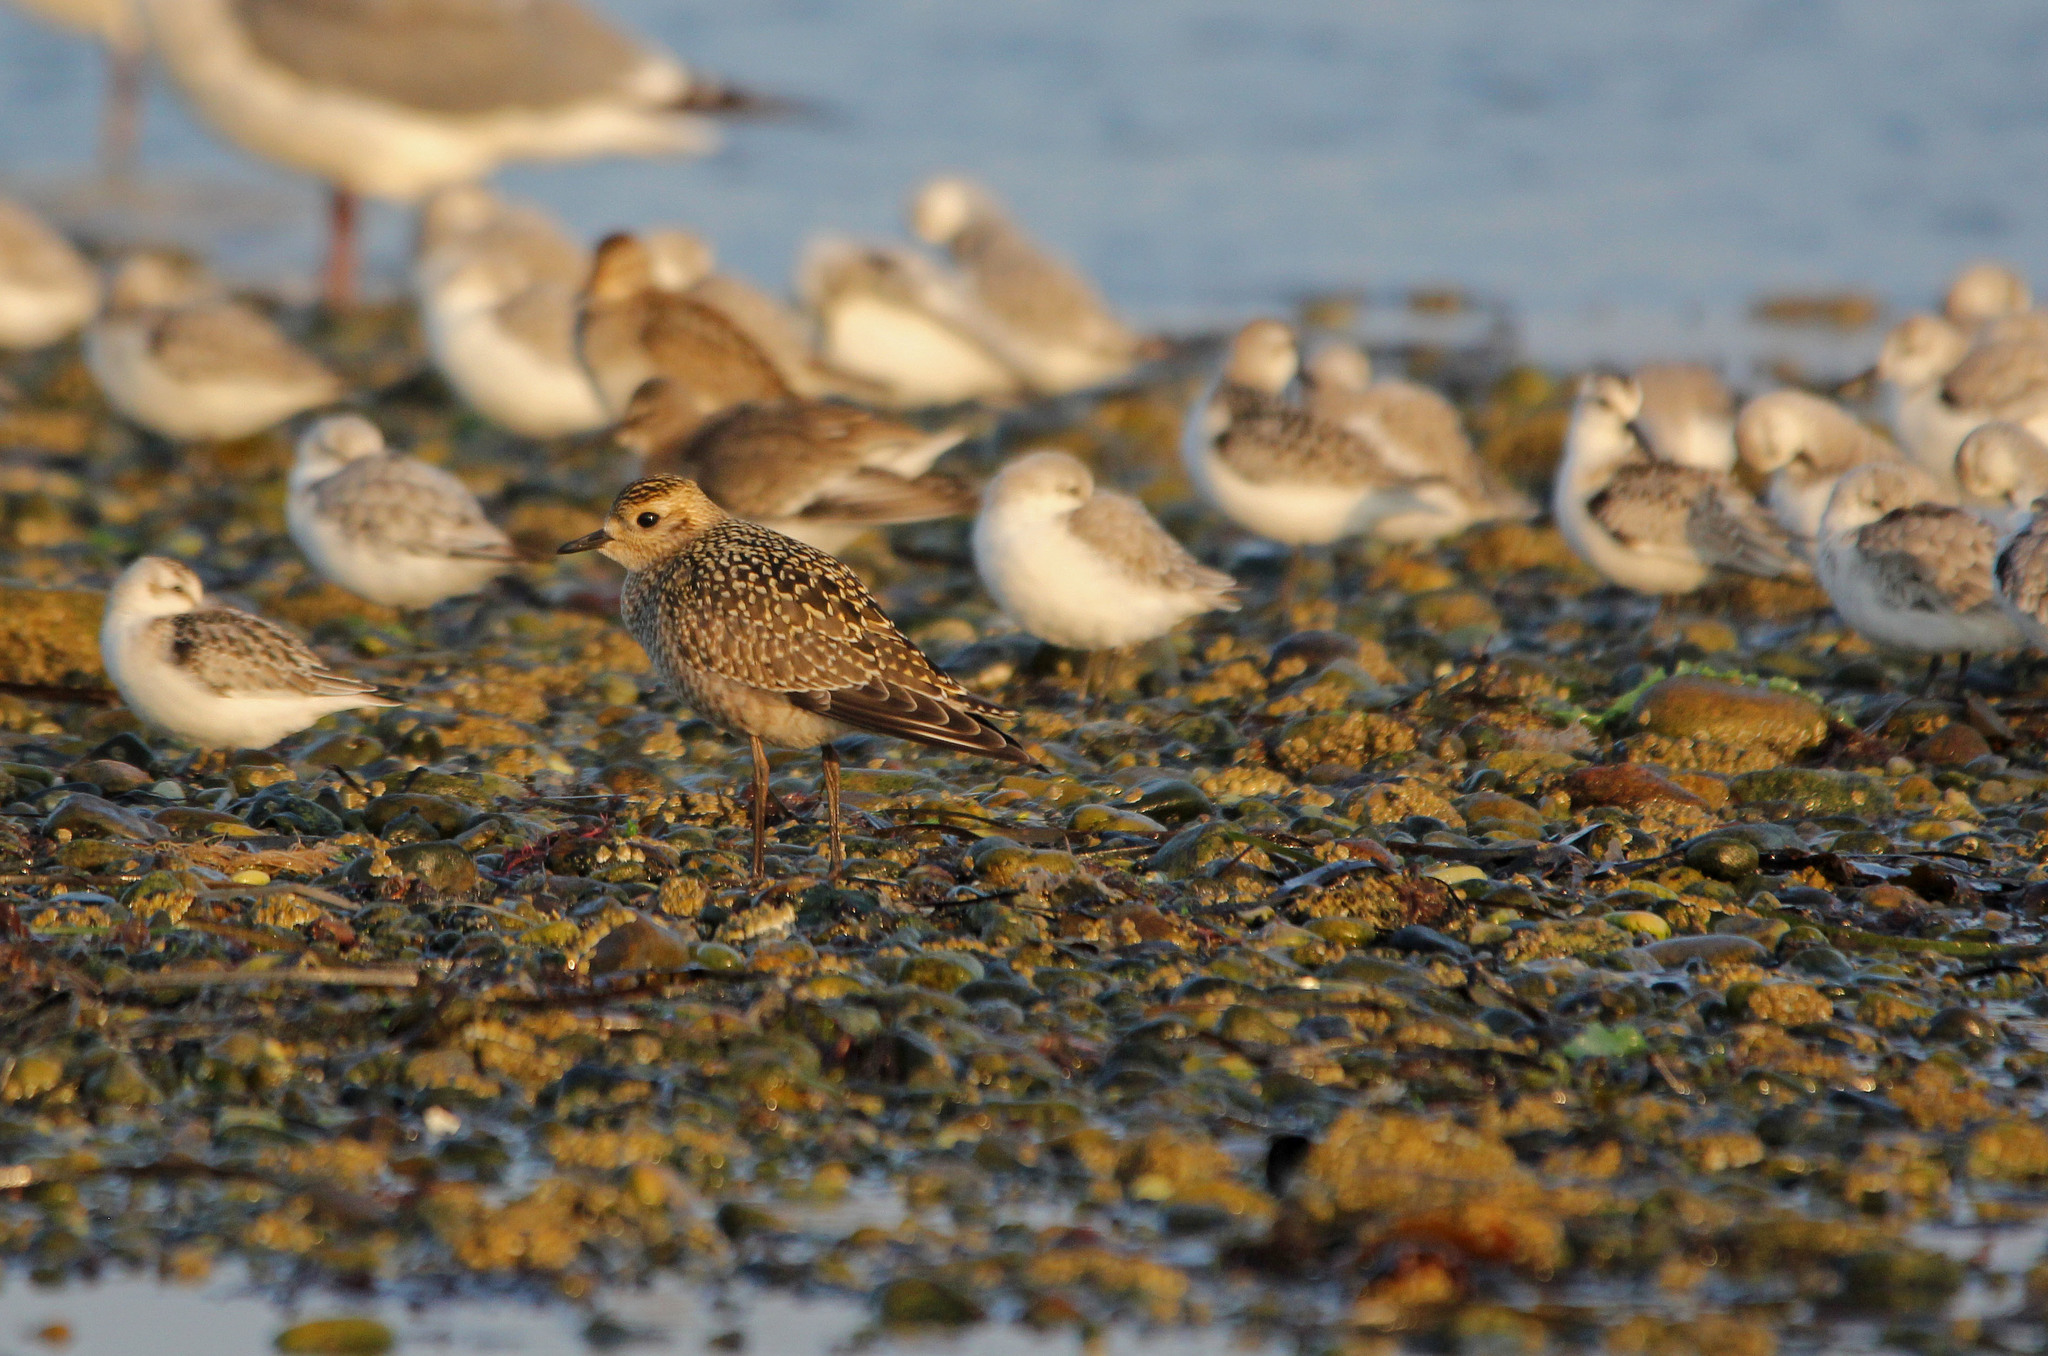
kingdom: Animalia
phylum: Chordata
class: Aves
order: Charadriiformes
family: Charadriidae
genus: Pluvialis
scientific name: Pluvialis dominica
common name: American golden plover
